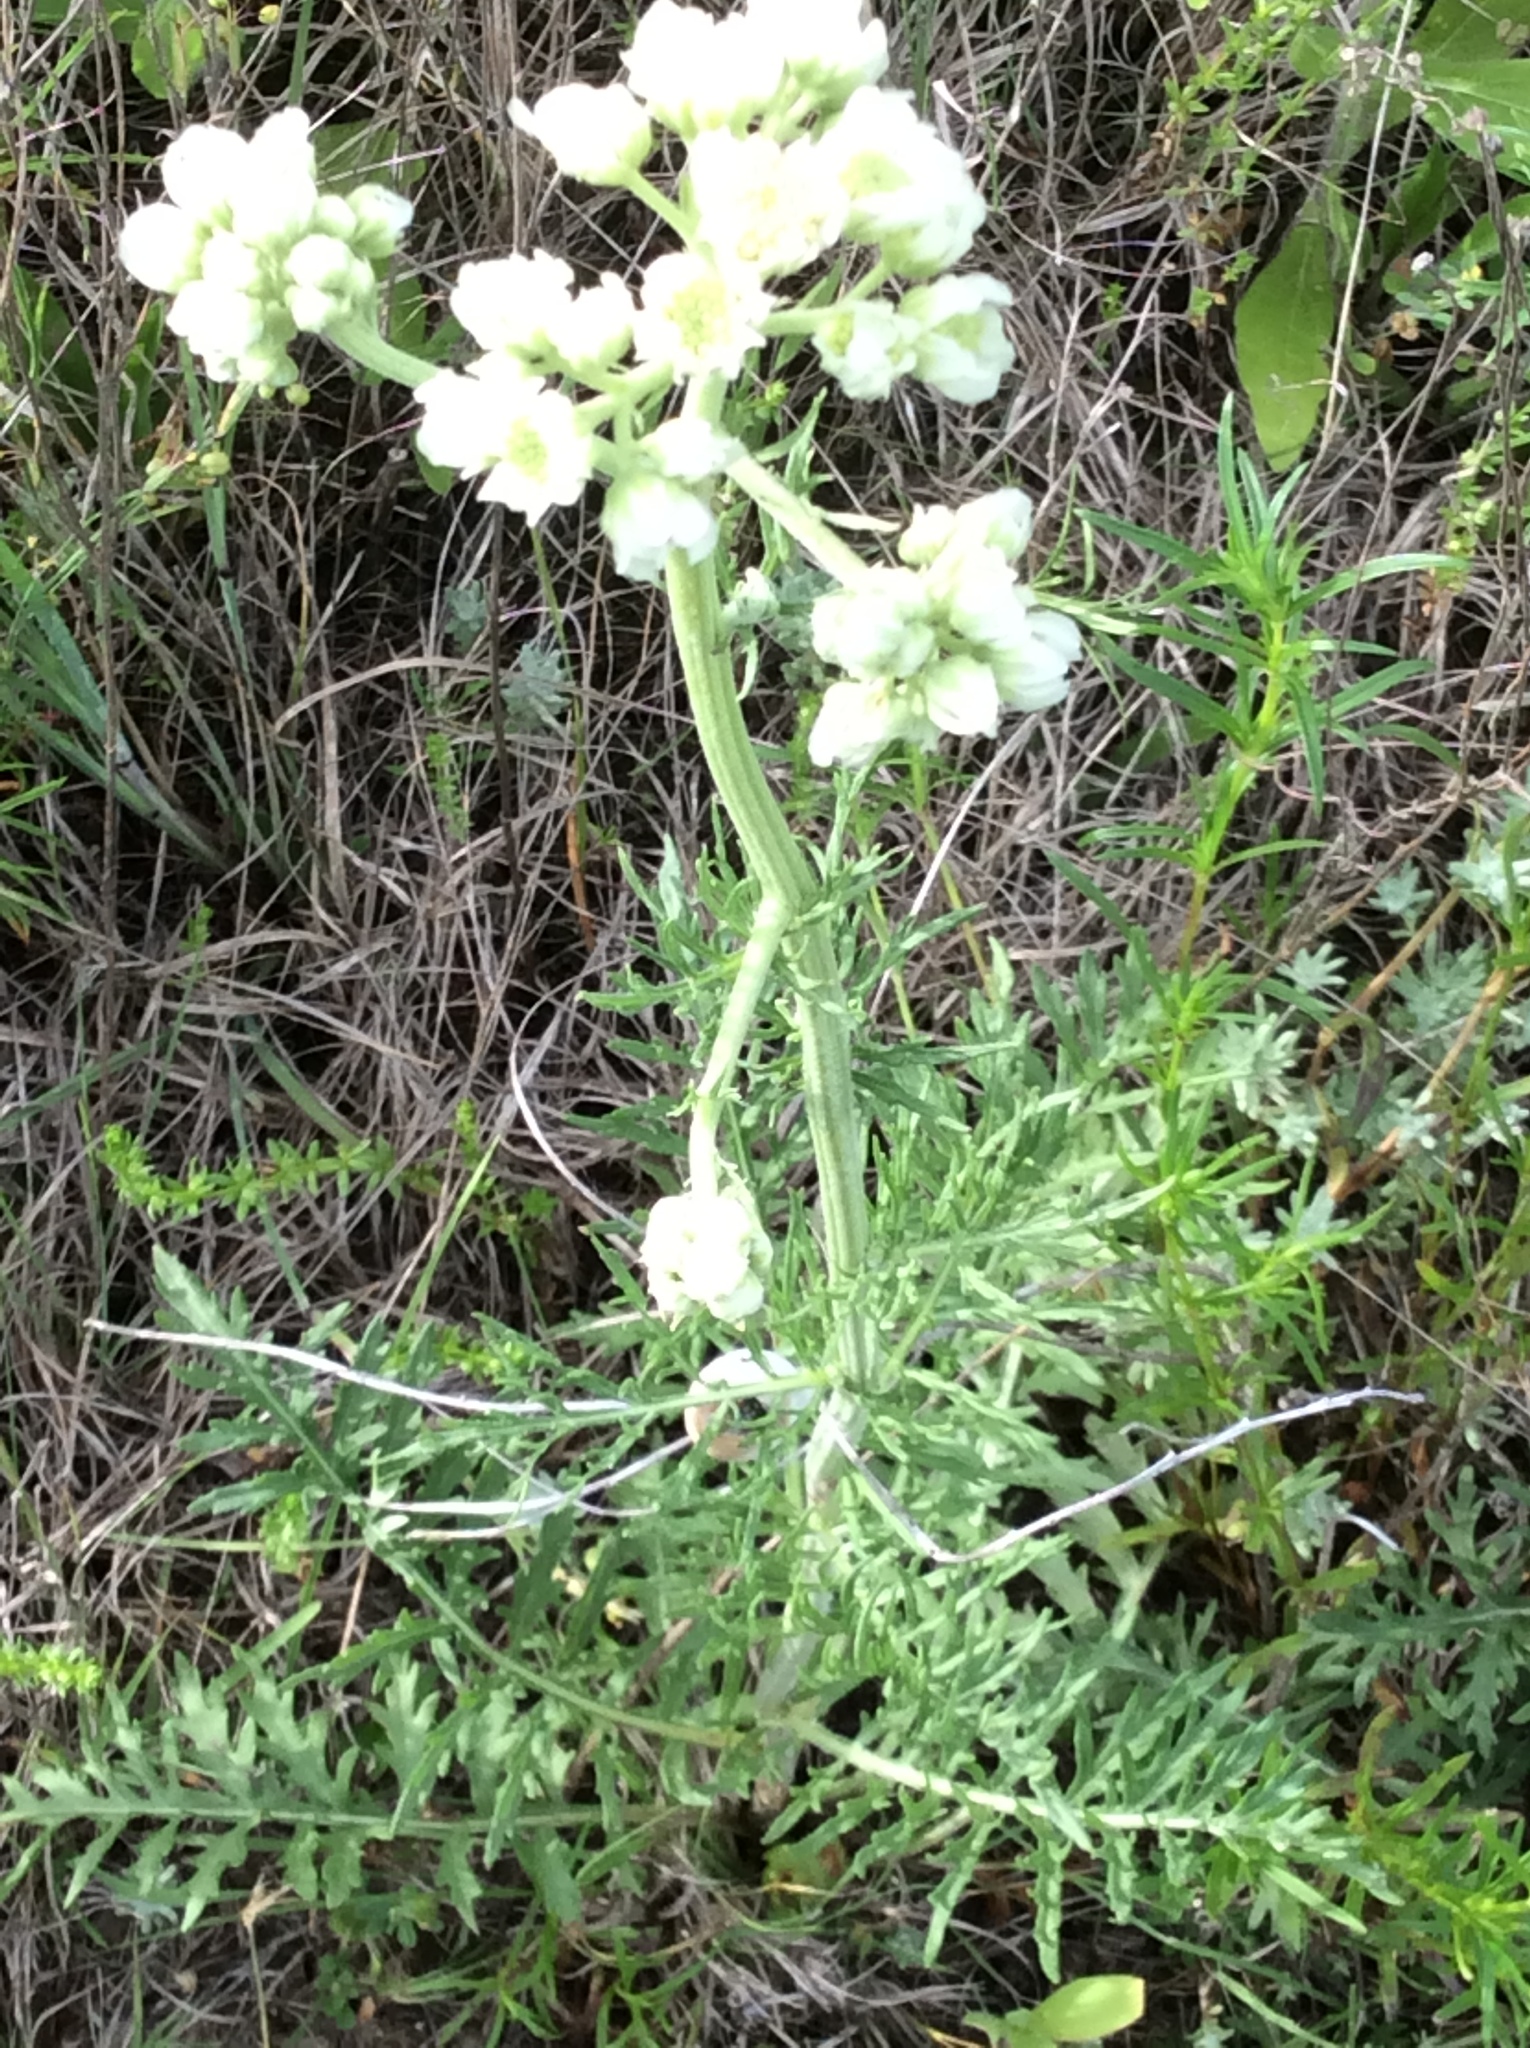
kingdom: Plantae
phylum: Tracheophyta
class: Magnoliopsida
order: Asterales
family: Asteraceae
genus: Hymenopappus
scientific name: Hymenopappus scabiosaeus
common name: Carolina woollywhite
